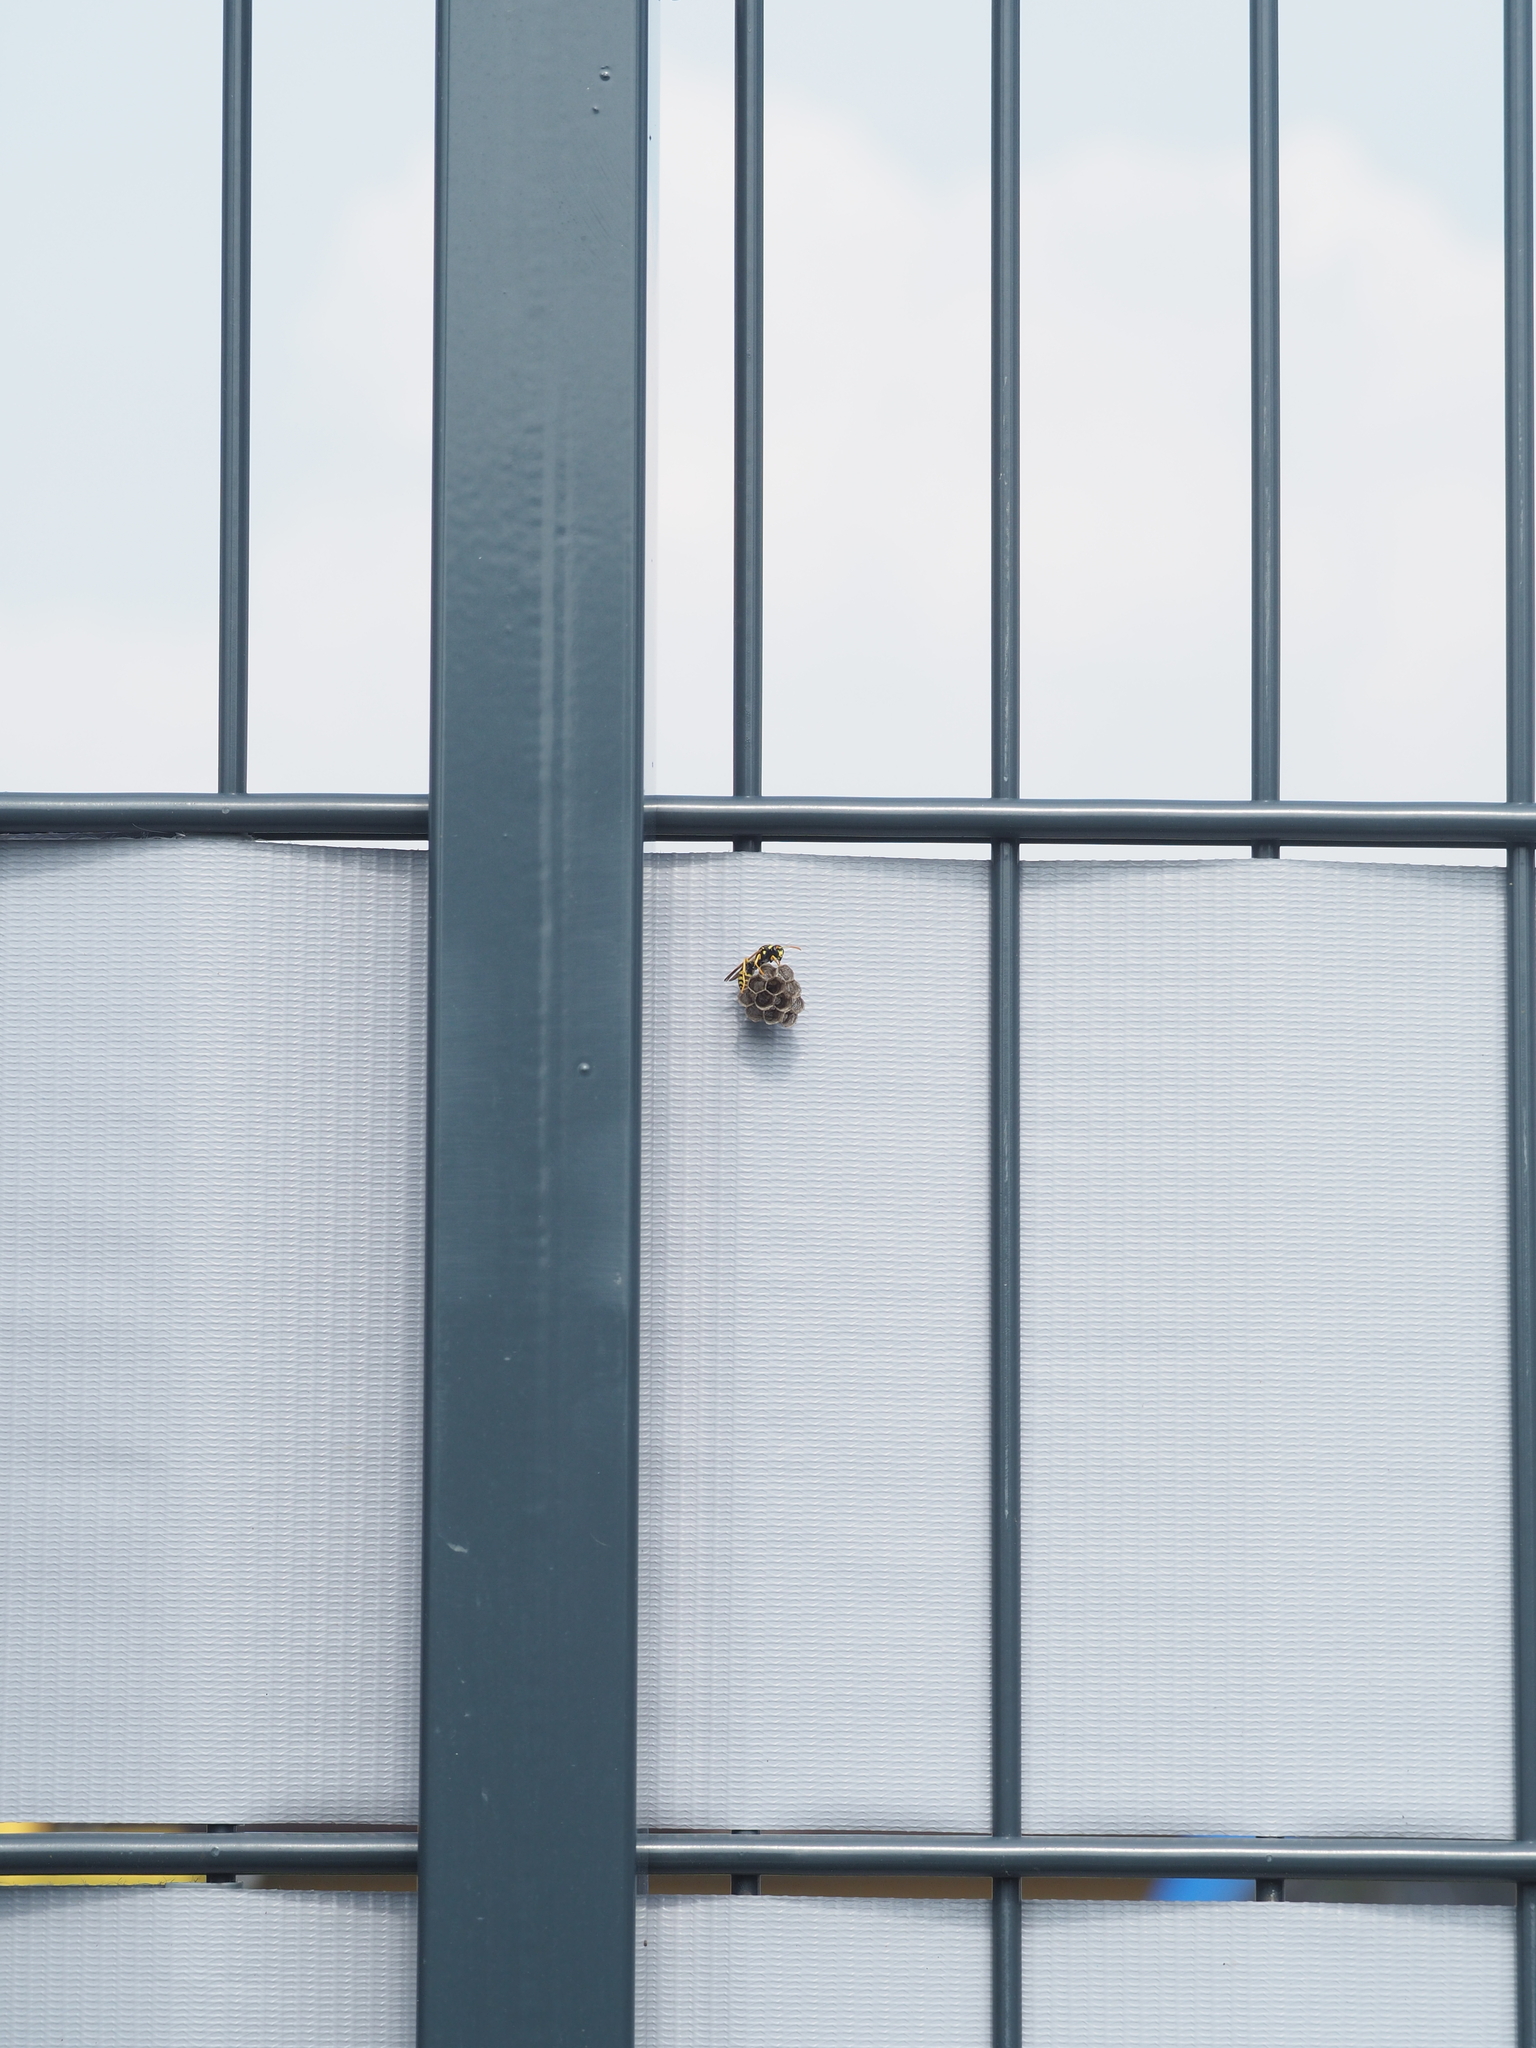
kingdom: Animalia
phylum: Arthropoda
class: Insecta
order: Hymenoptera
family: Eumenidae
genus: Polistes
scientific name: Polistes gallicus
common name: Paper wasp
